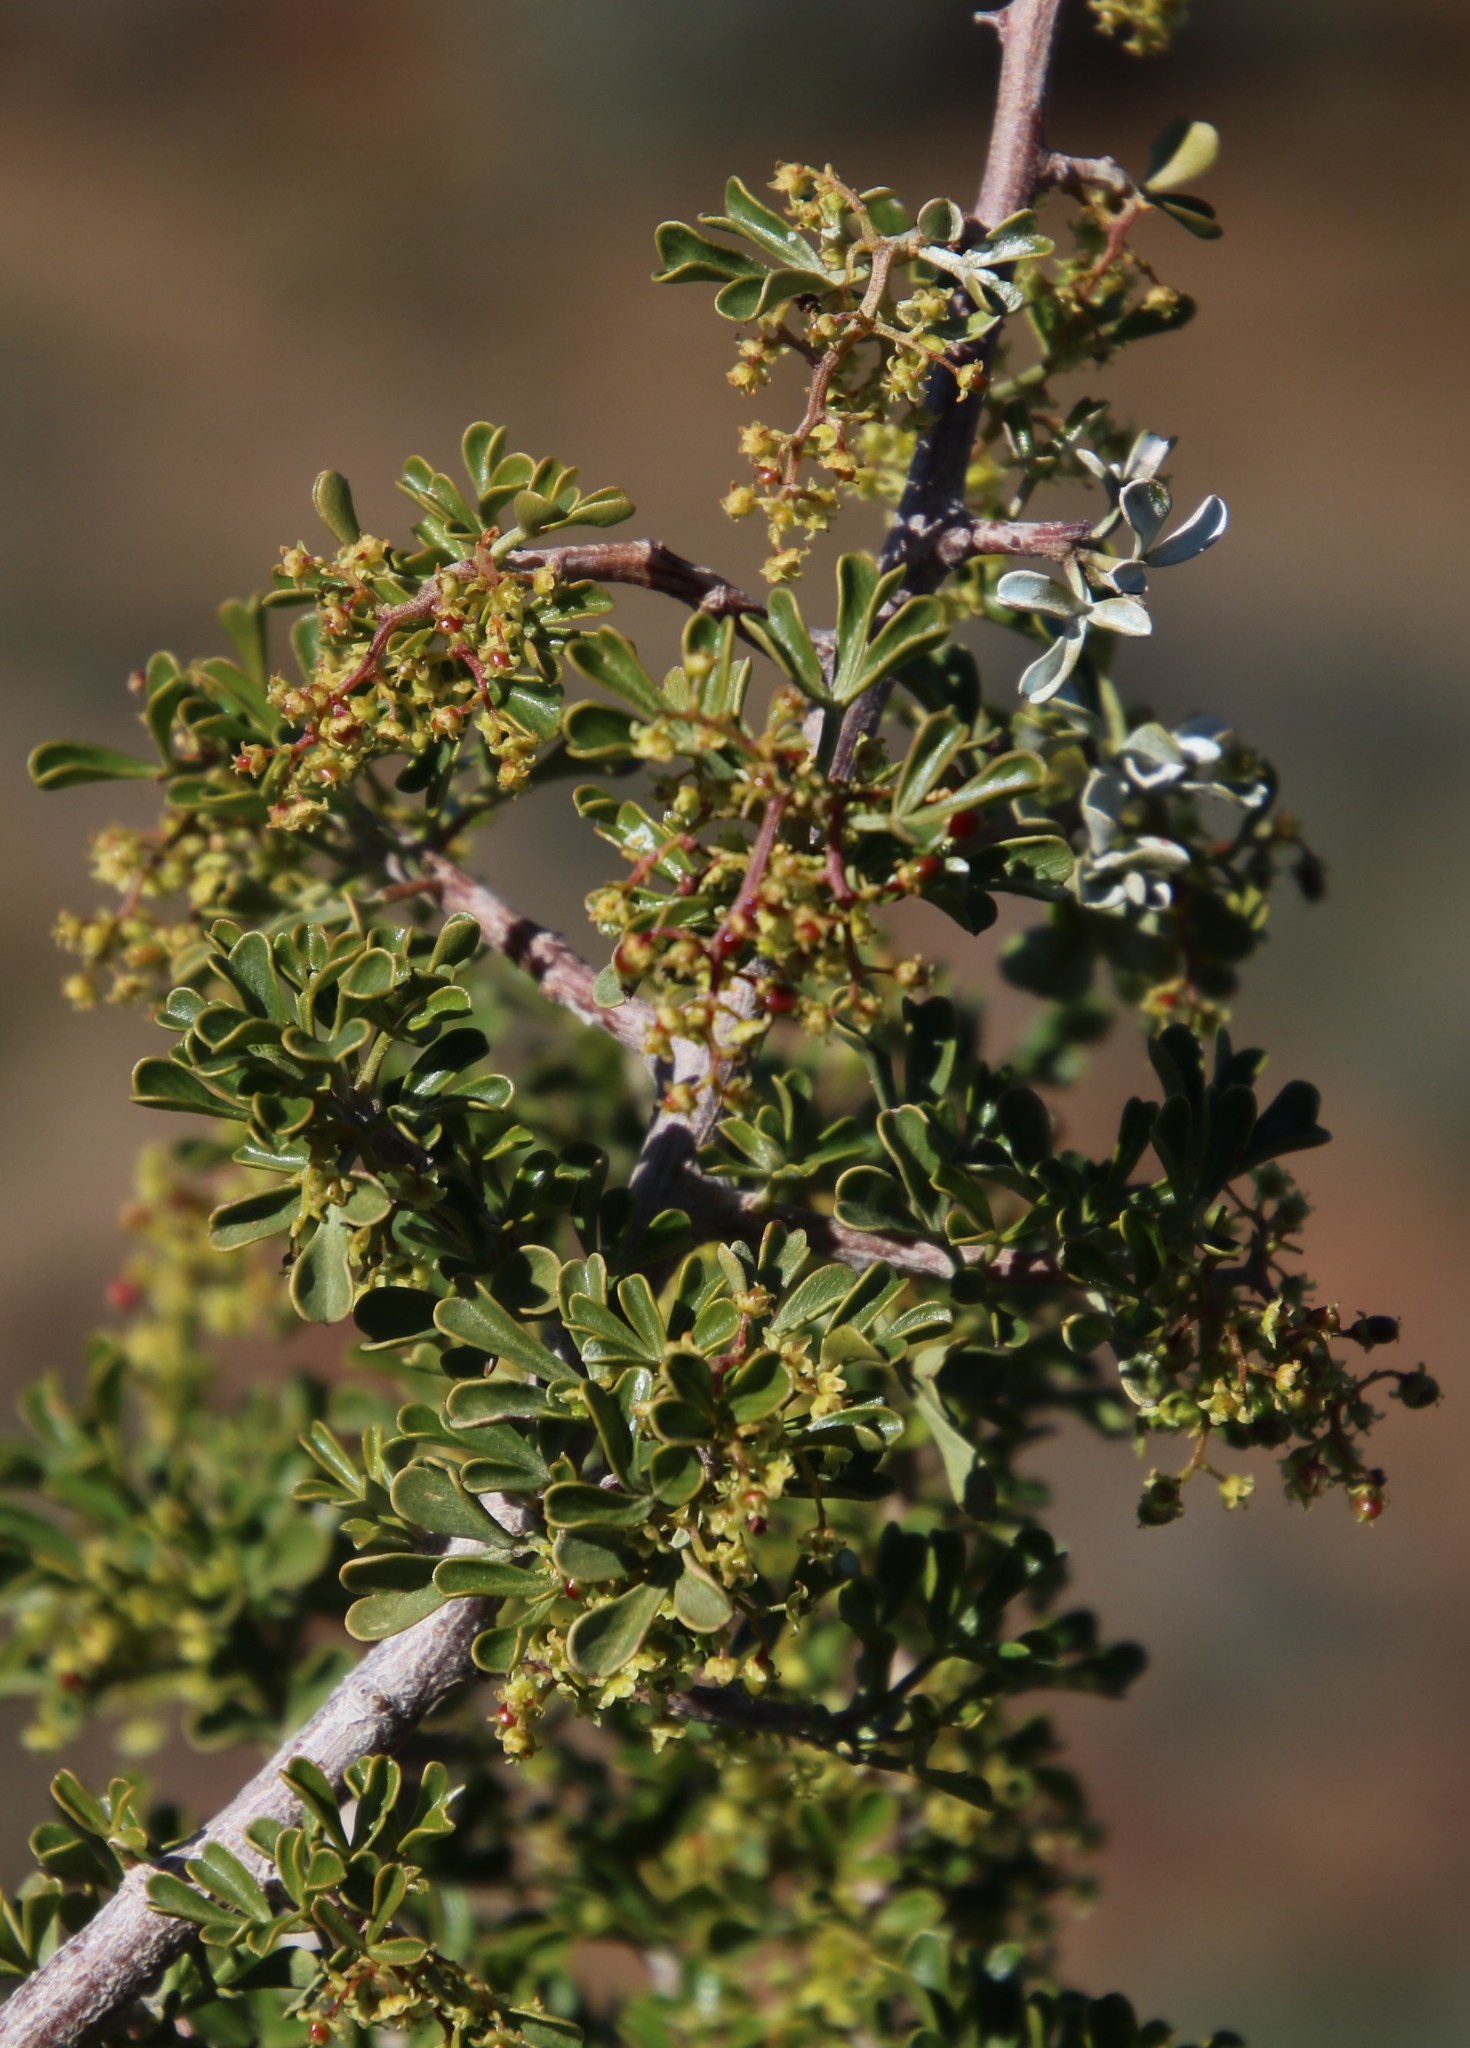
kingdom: Plantae
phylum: Tracheophyta
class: Magnoliopsida
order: Sapindales
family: Anacardiaceae
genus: Searsia
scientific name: Searsia burchellii
